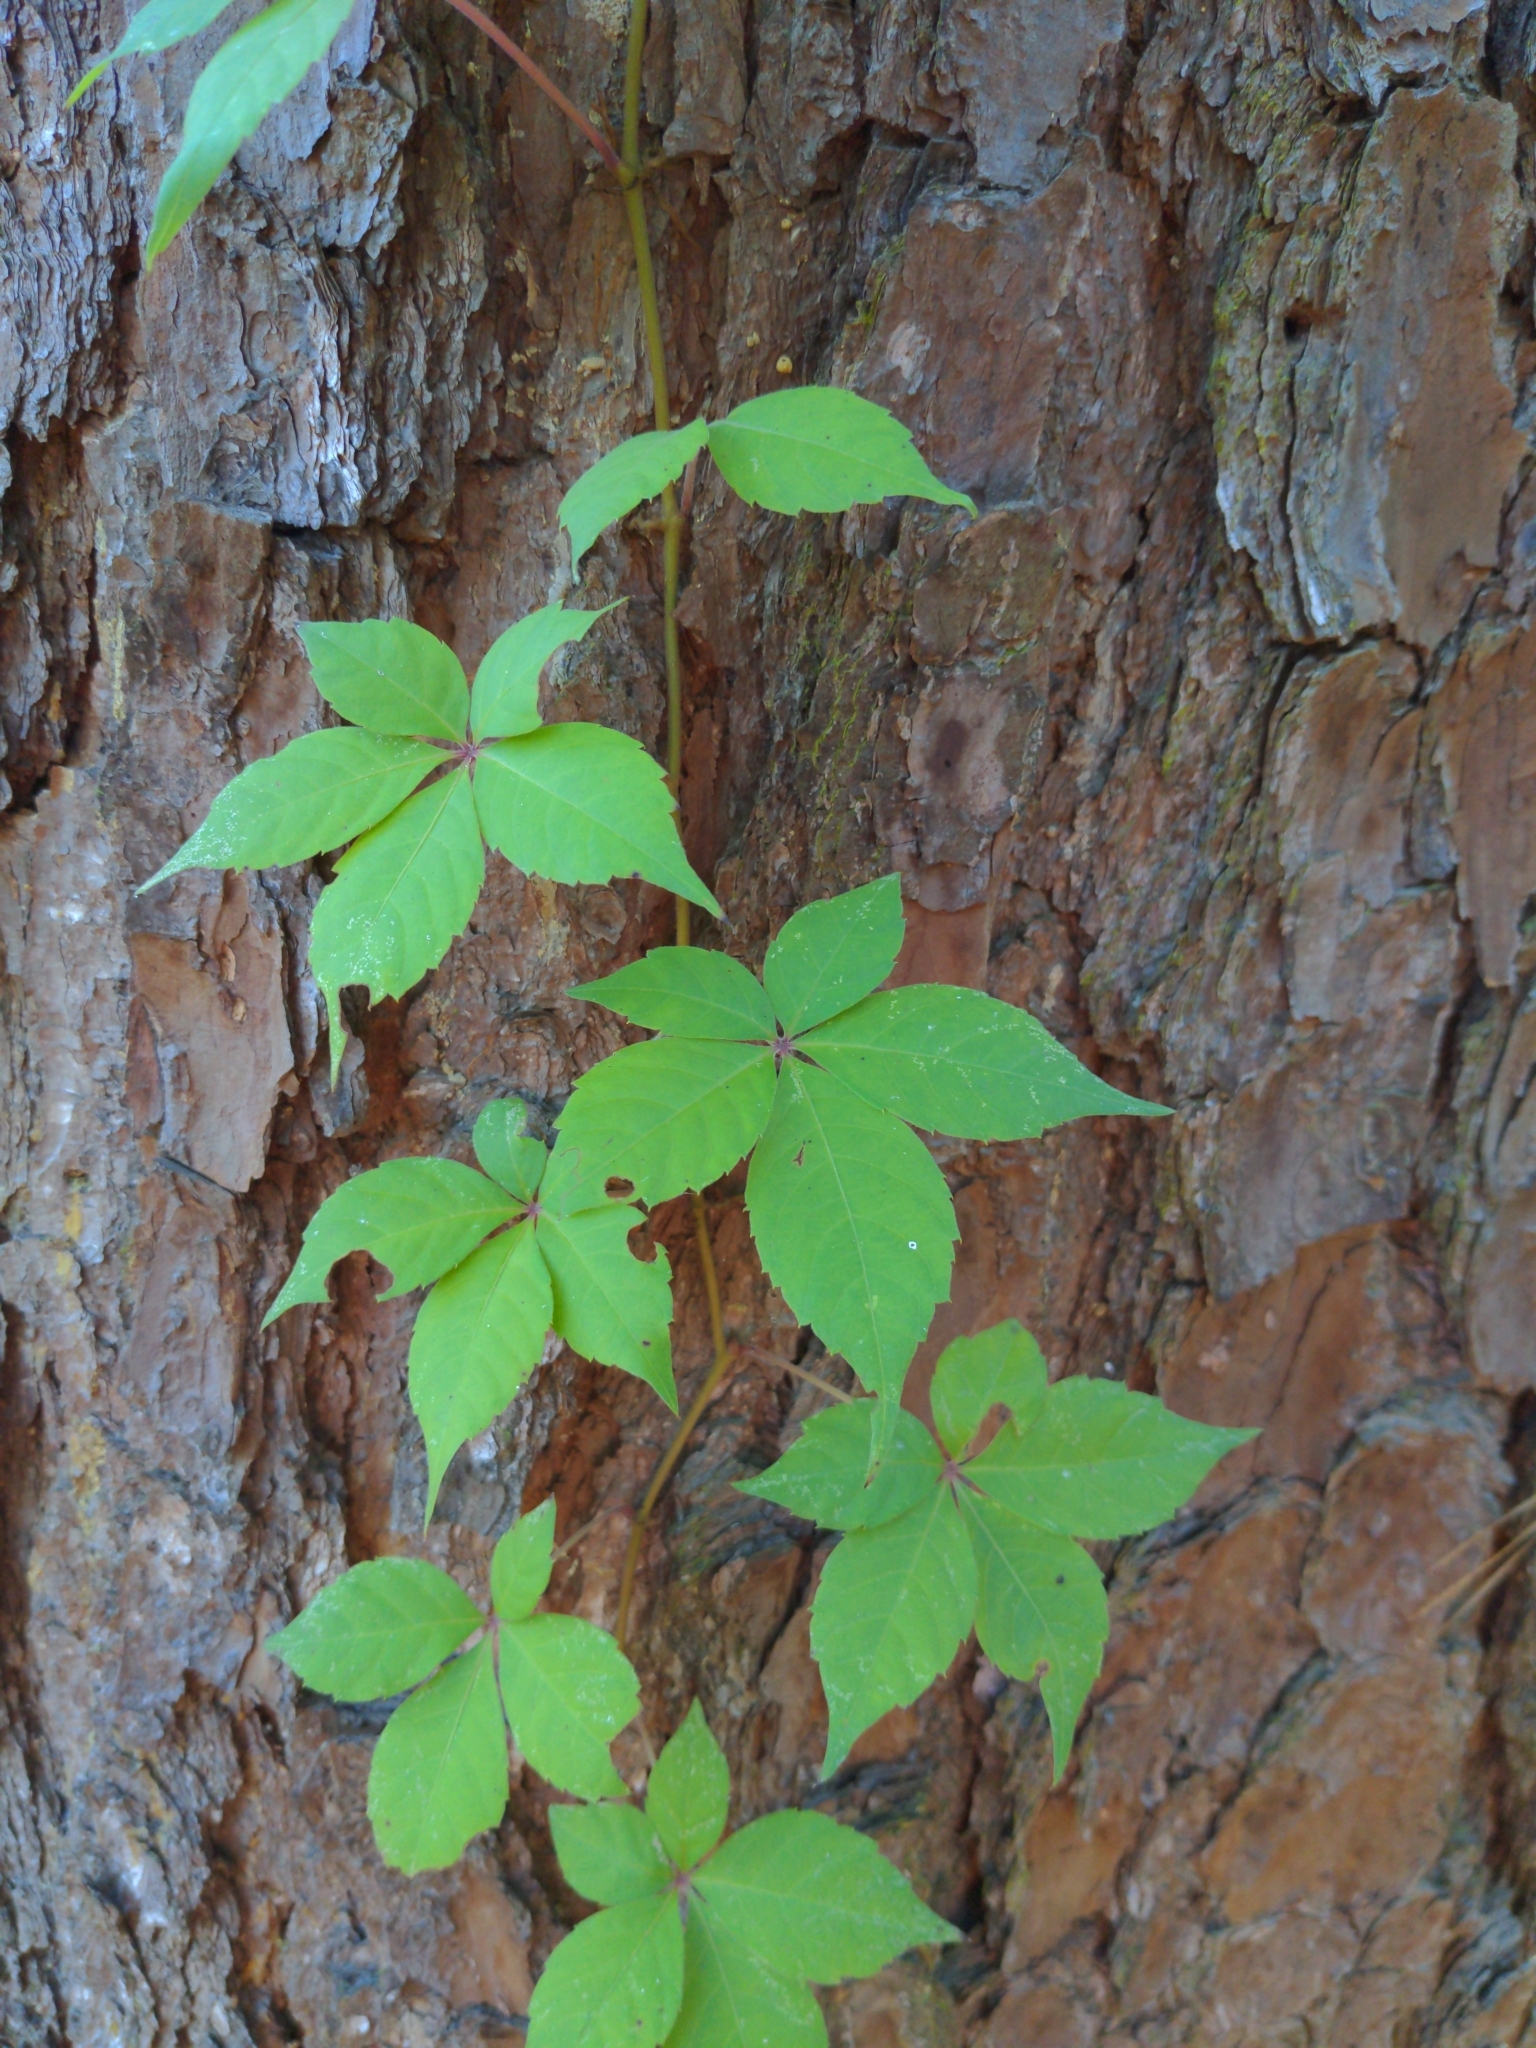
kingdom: Plantae
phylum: Tracheophyta
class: Magnoliopsida
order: Vitales
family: Vitaceae
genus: Parthenocissus
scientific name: Parthenocissus quinquefolia
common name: Virginia-creeper
